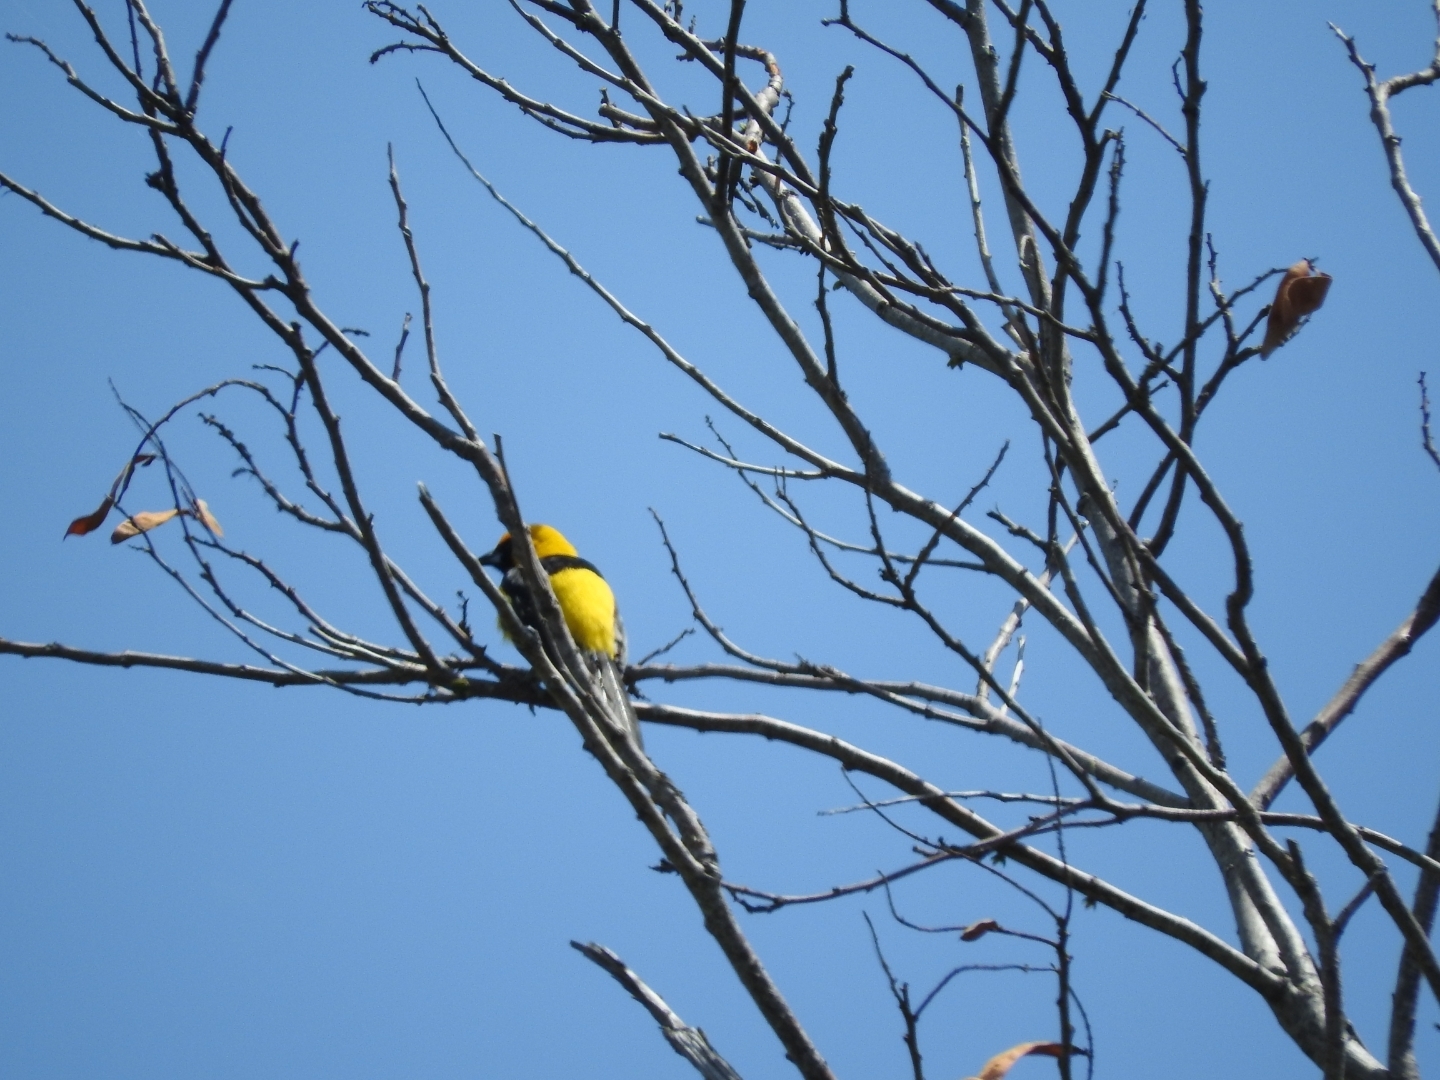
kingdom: Animalia
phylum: Chordata
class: Aves
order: Passeriformes
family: Icteridae
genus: Icterus
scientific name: Icterus mesomelas
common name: Yellow-tailed oriole
